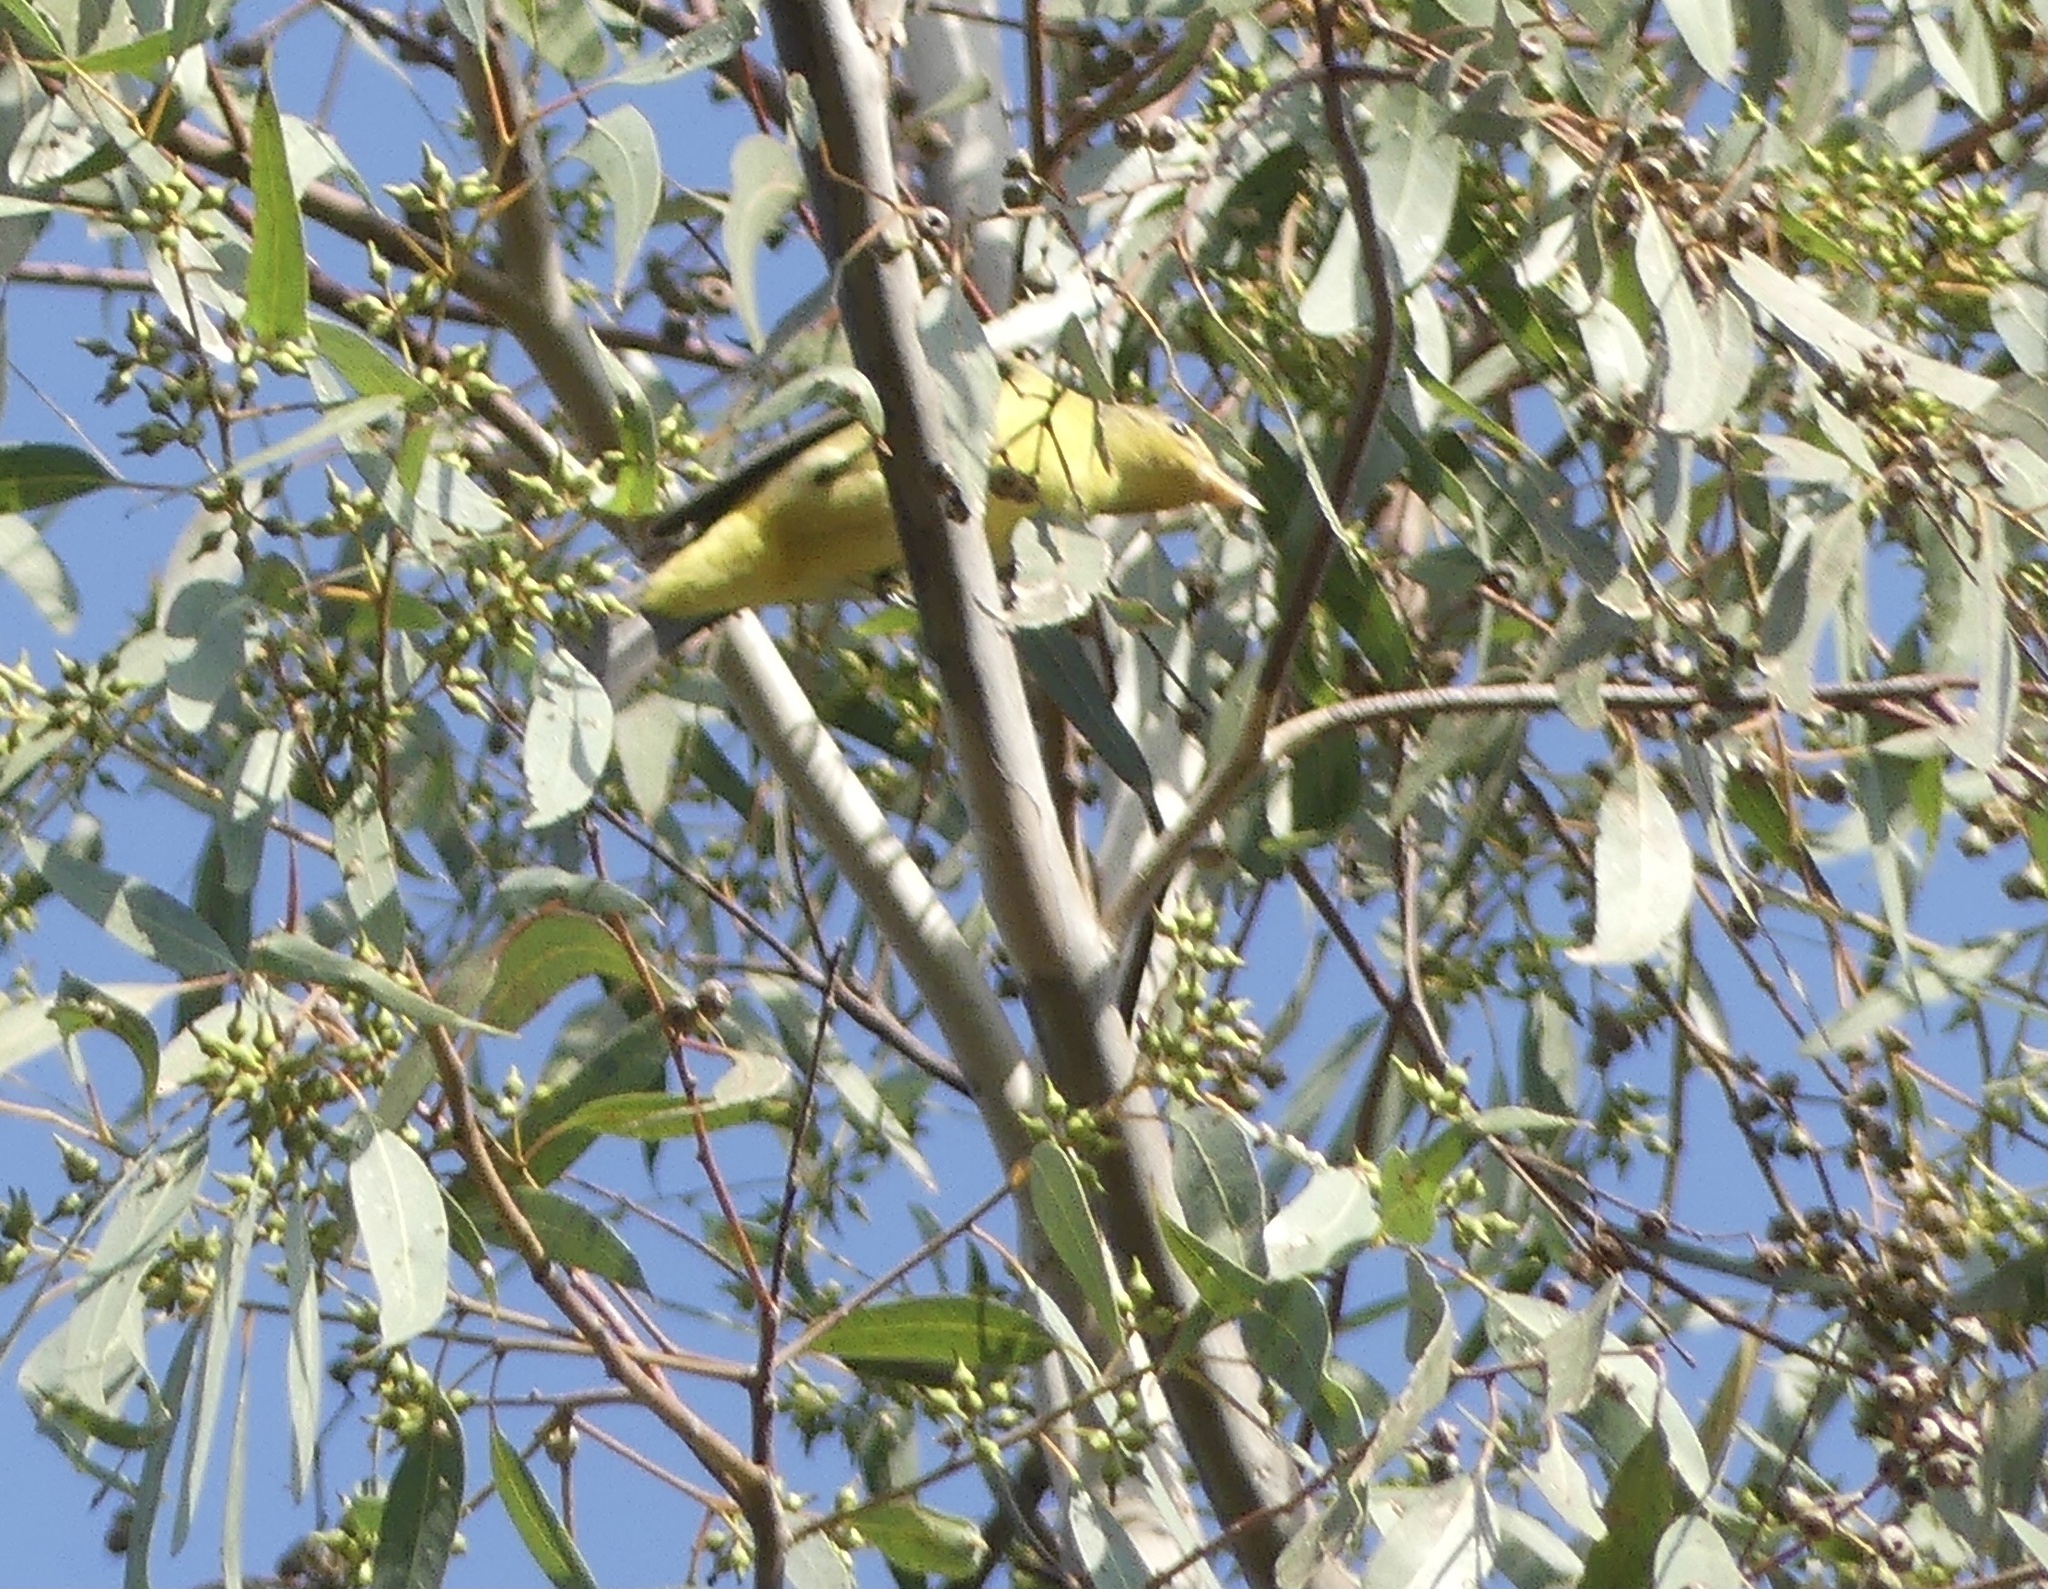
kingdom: Animalia
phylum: Chordata
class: Aves
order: Passeriformes
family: Cardinalidae
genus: Piranga
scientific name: Piranga ludoviciana
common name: Western tanager
